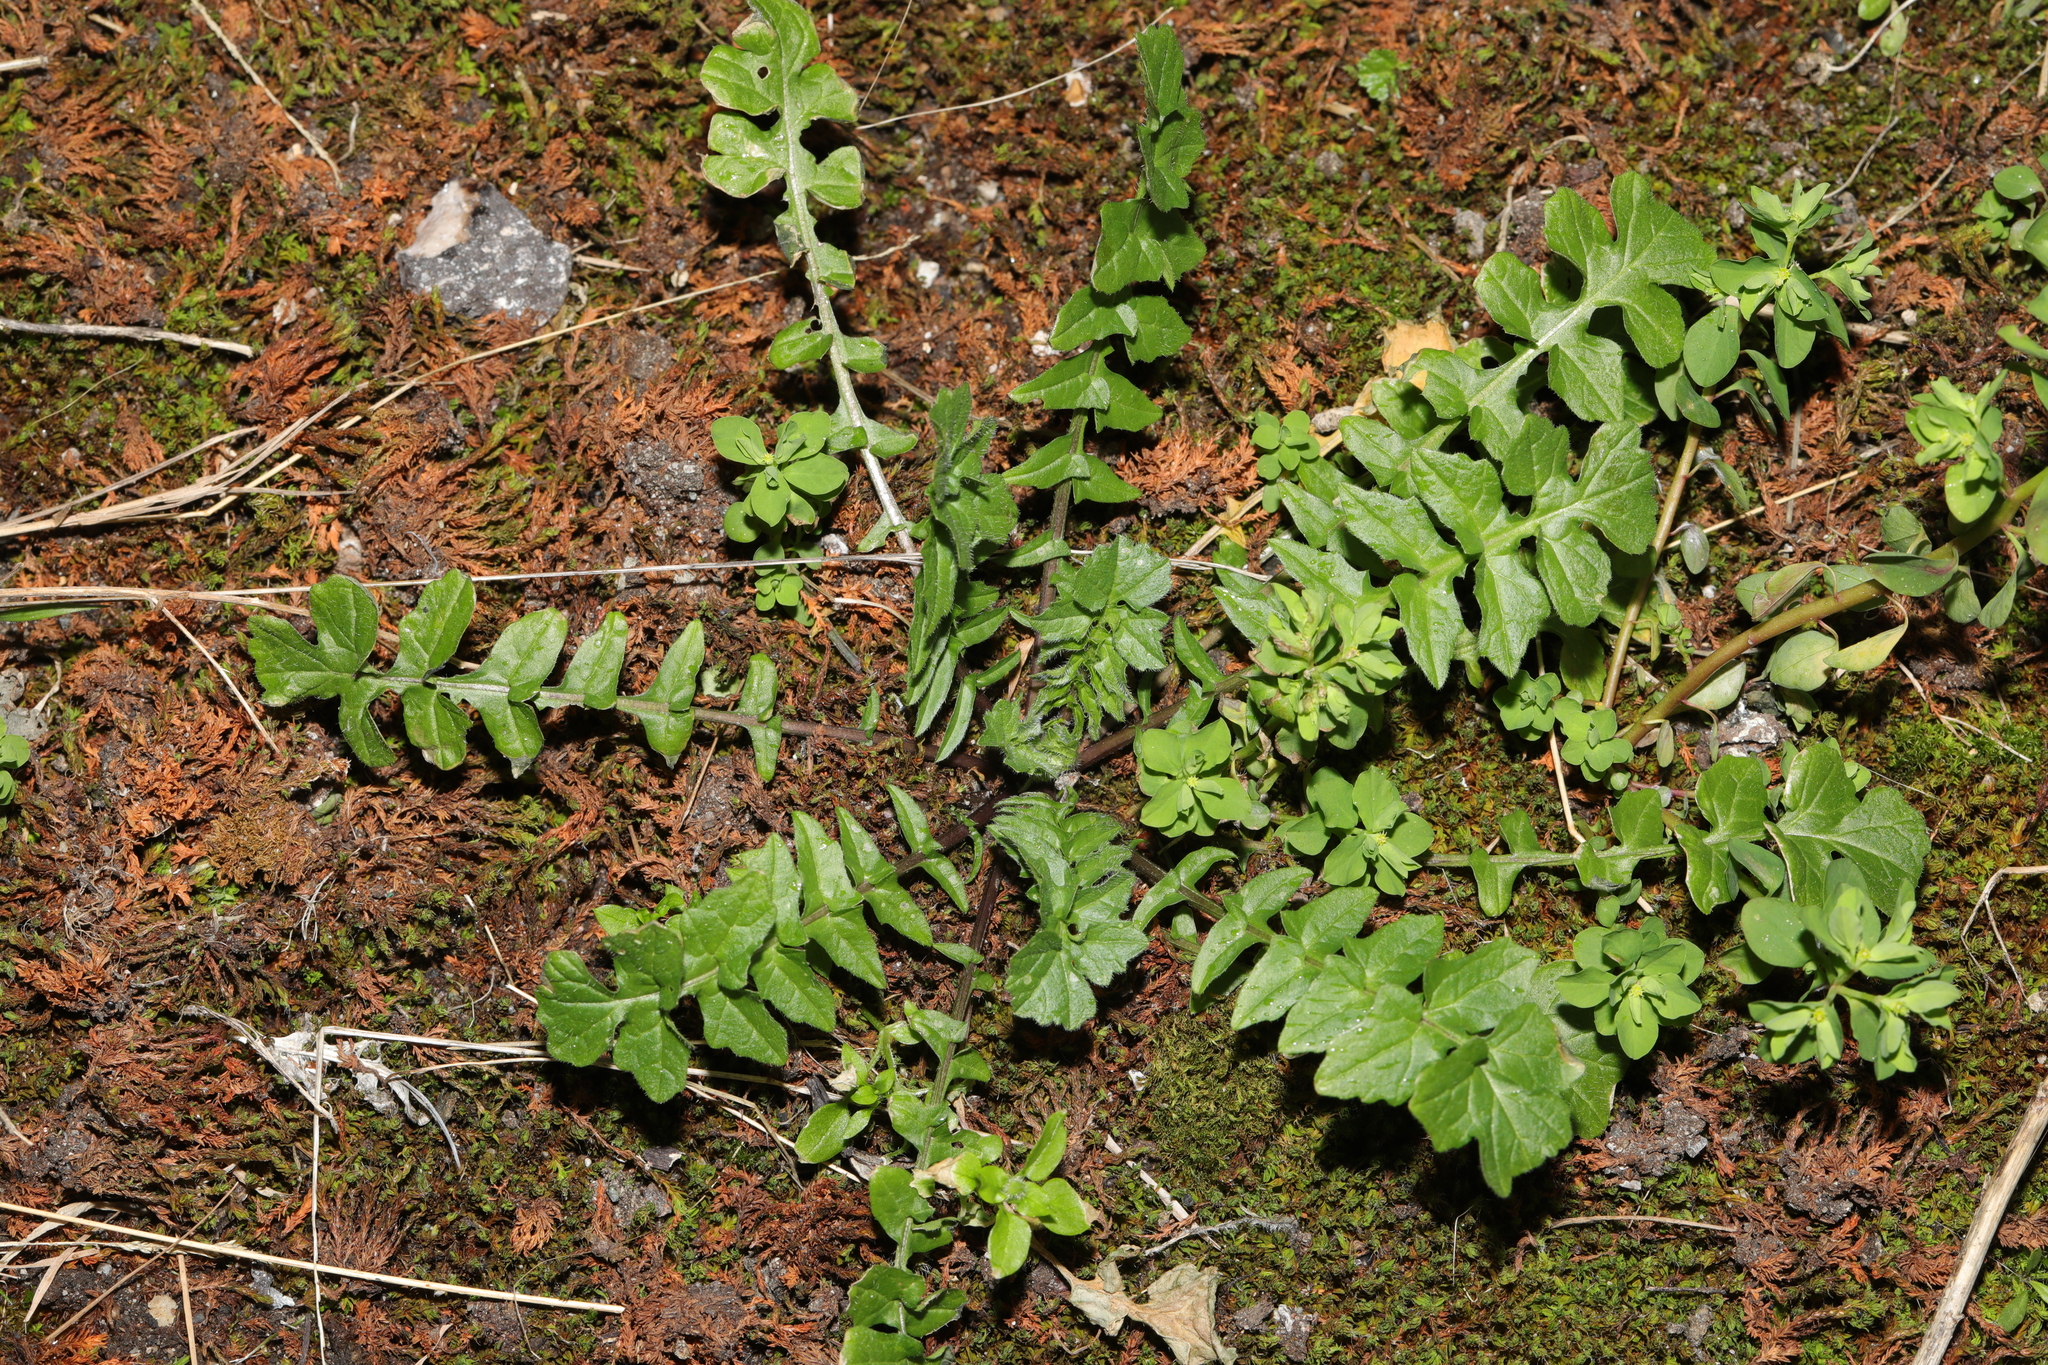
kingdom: Plantae
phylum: Tracheophyta
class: Magnoliopsida
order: Brassicales
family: Brassicaceae
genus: Sisymbrium
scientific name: Sisymbrium officinale
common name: Hedge mustard
